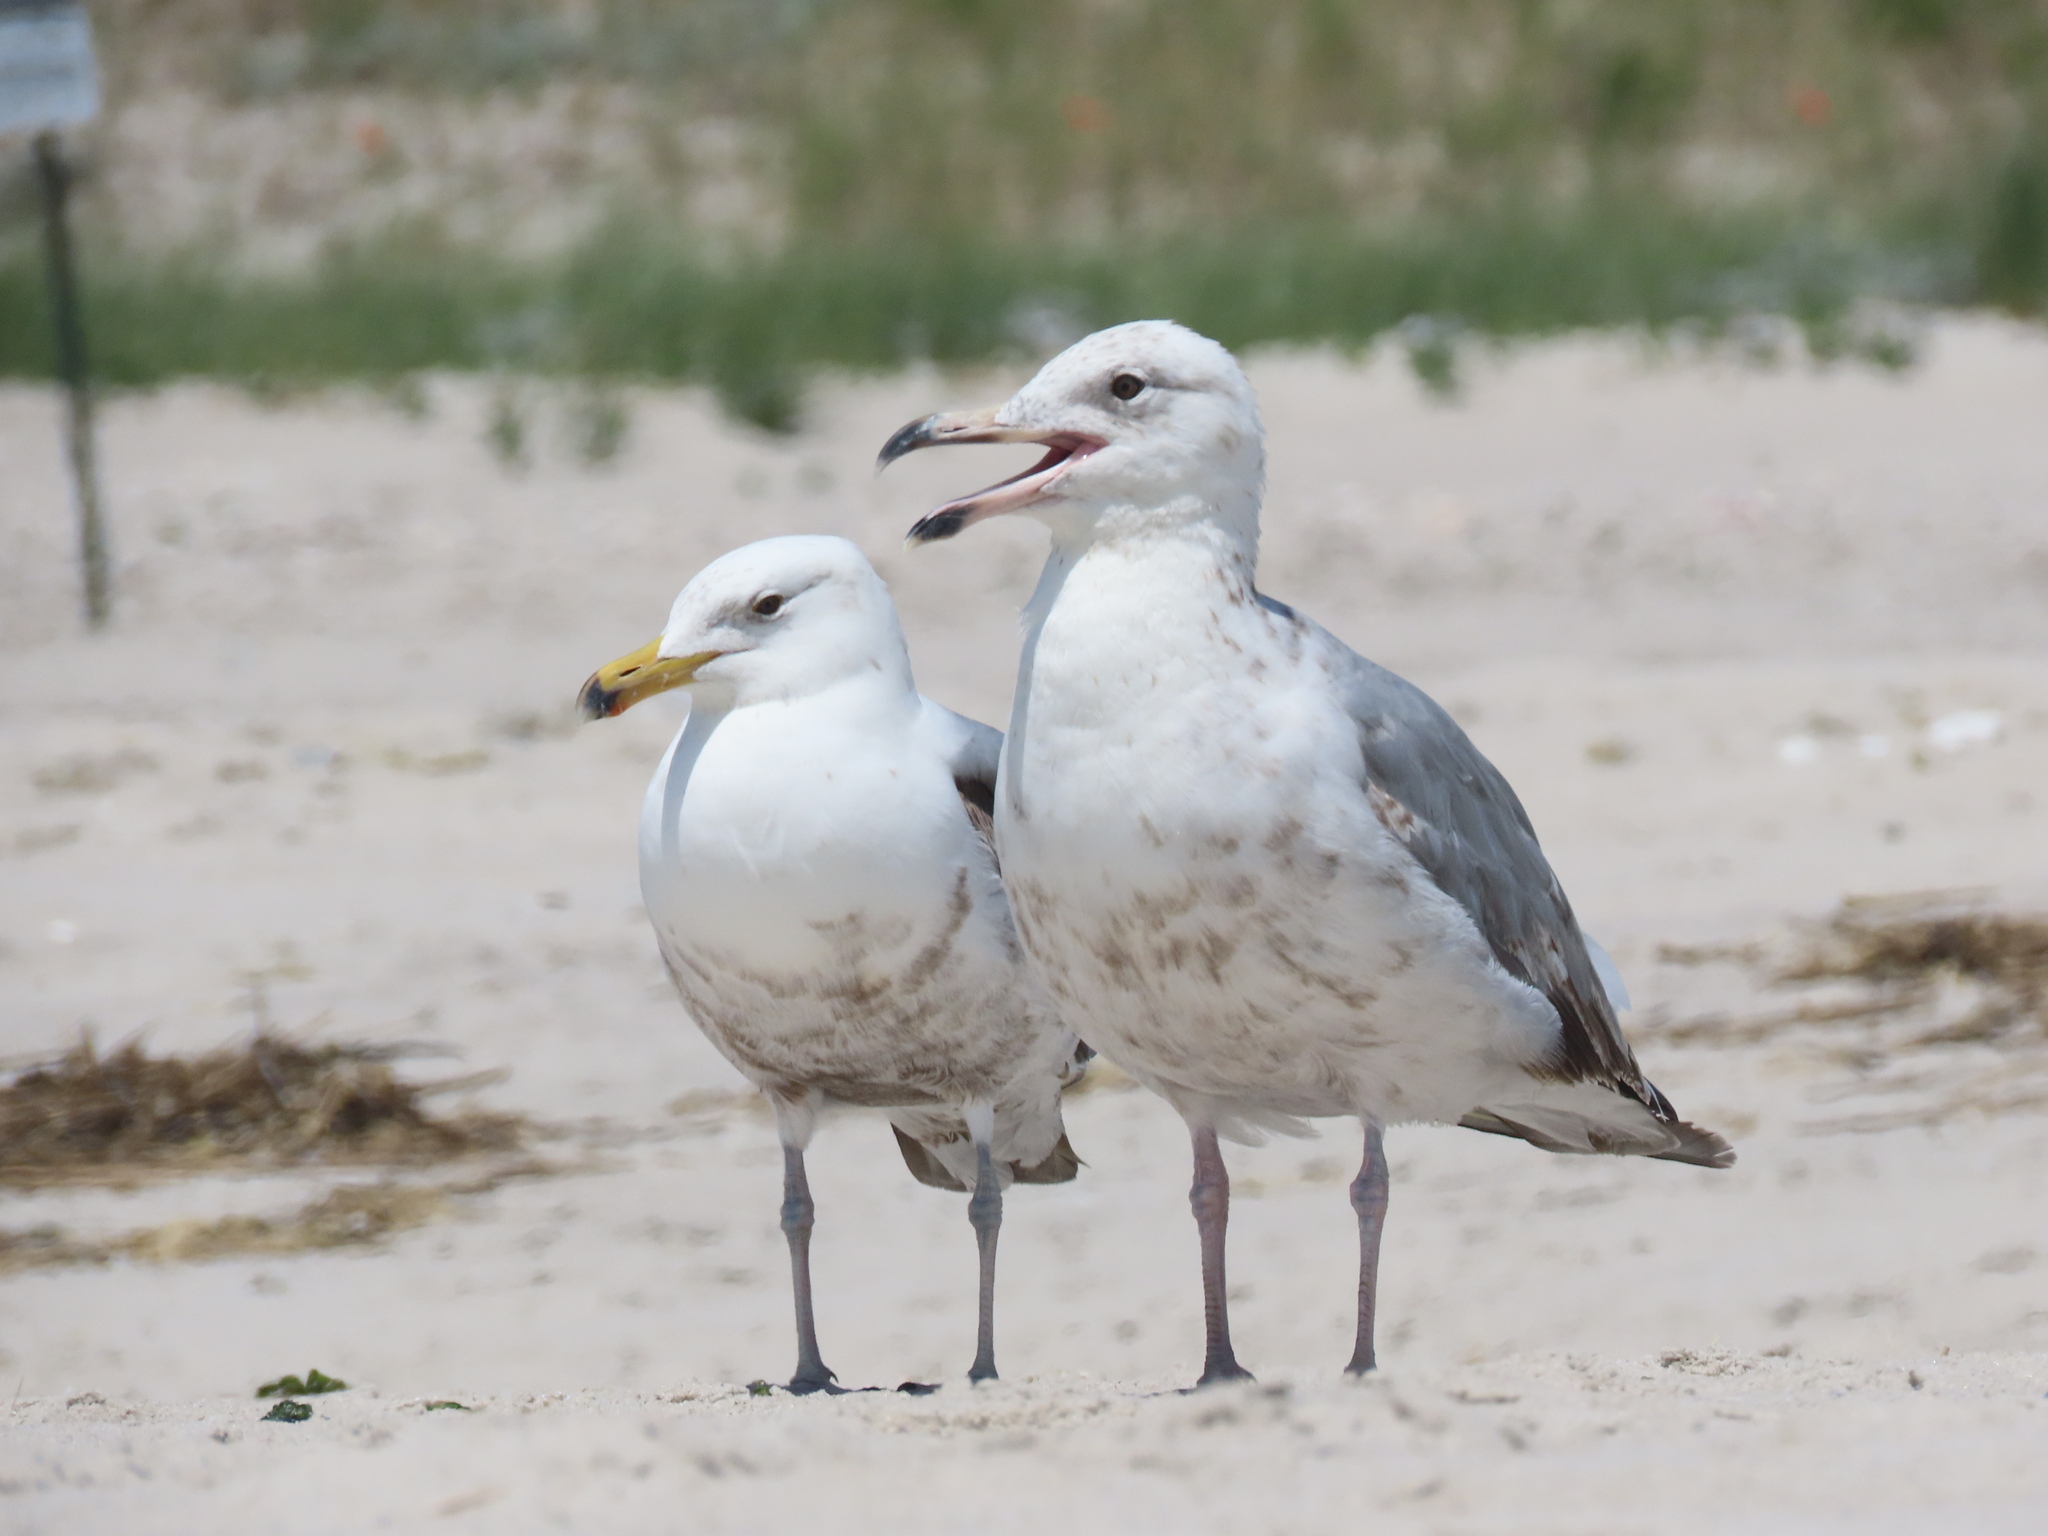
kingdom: Animalia
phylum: Chordata
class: Aves
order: Charadriiformes
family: Laridae
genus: Larus
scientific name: Larus delawarensis
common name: Ring-billed gull
